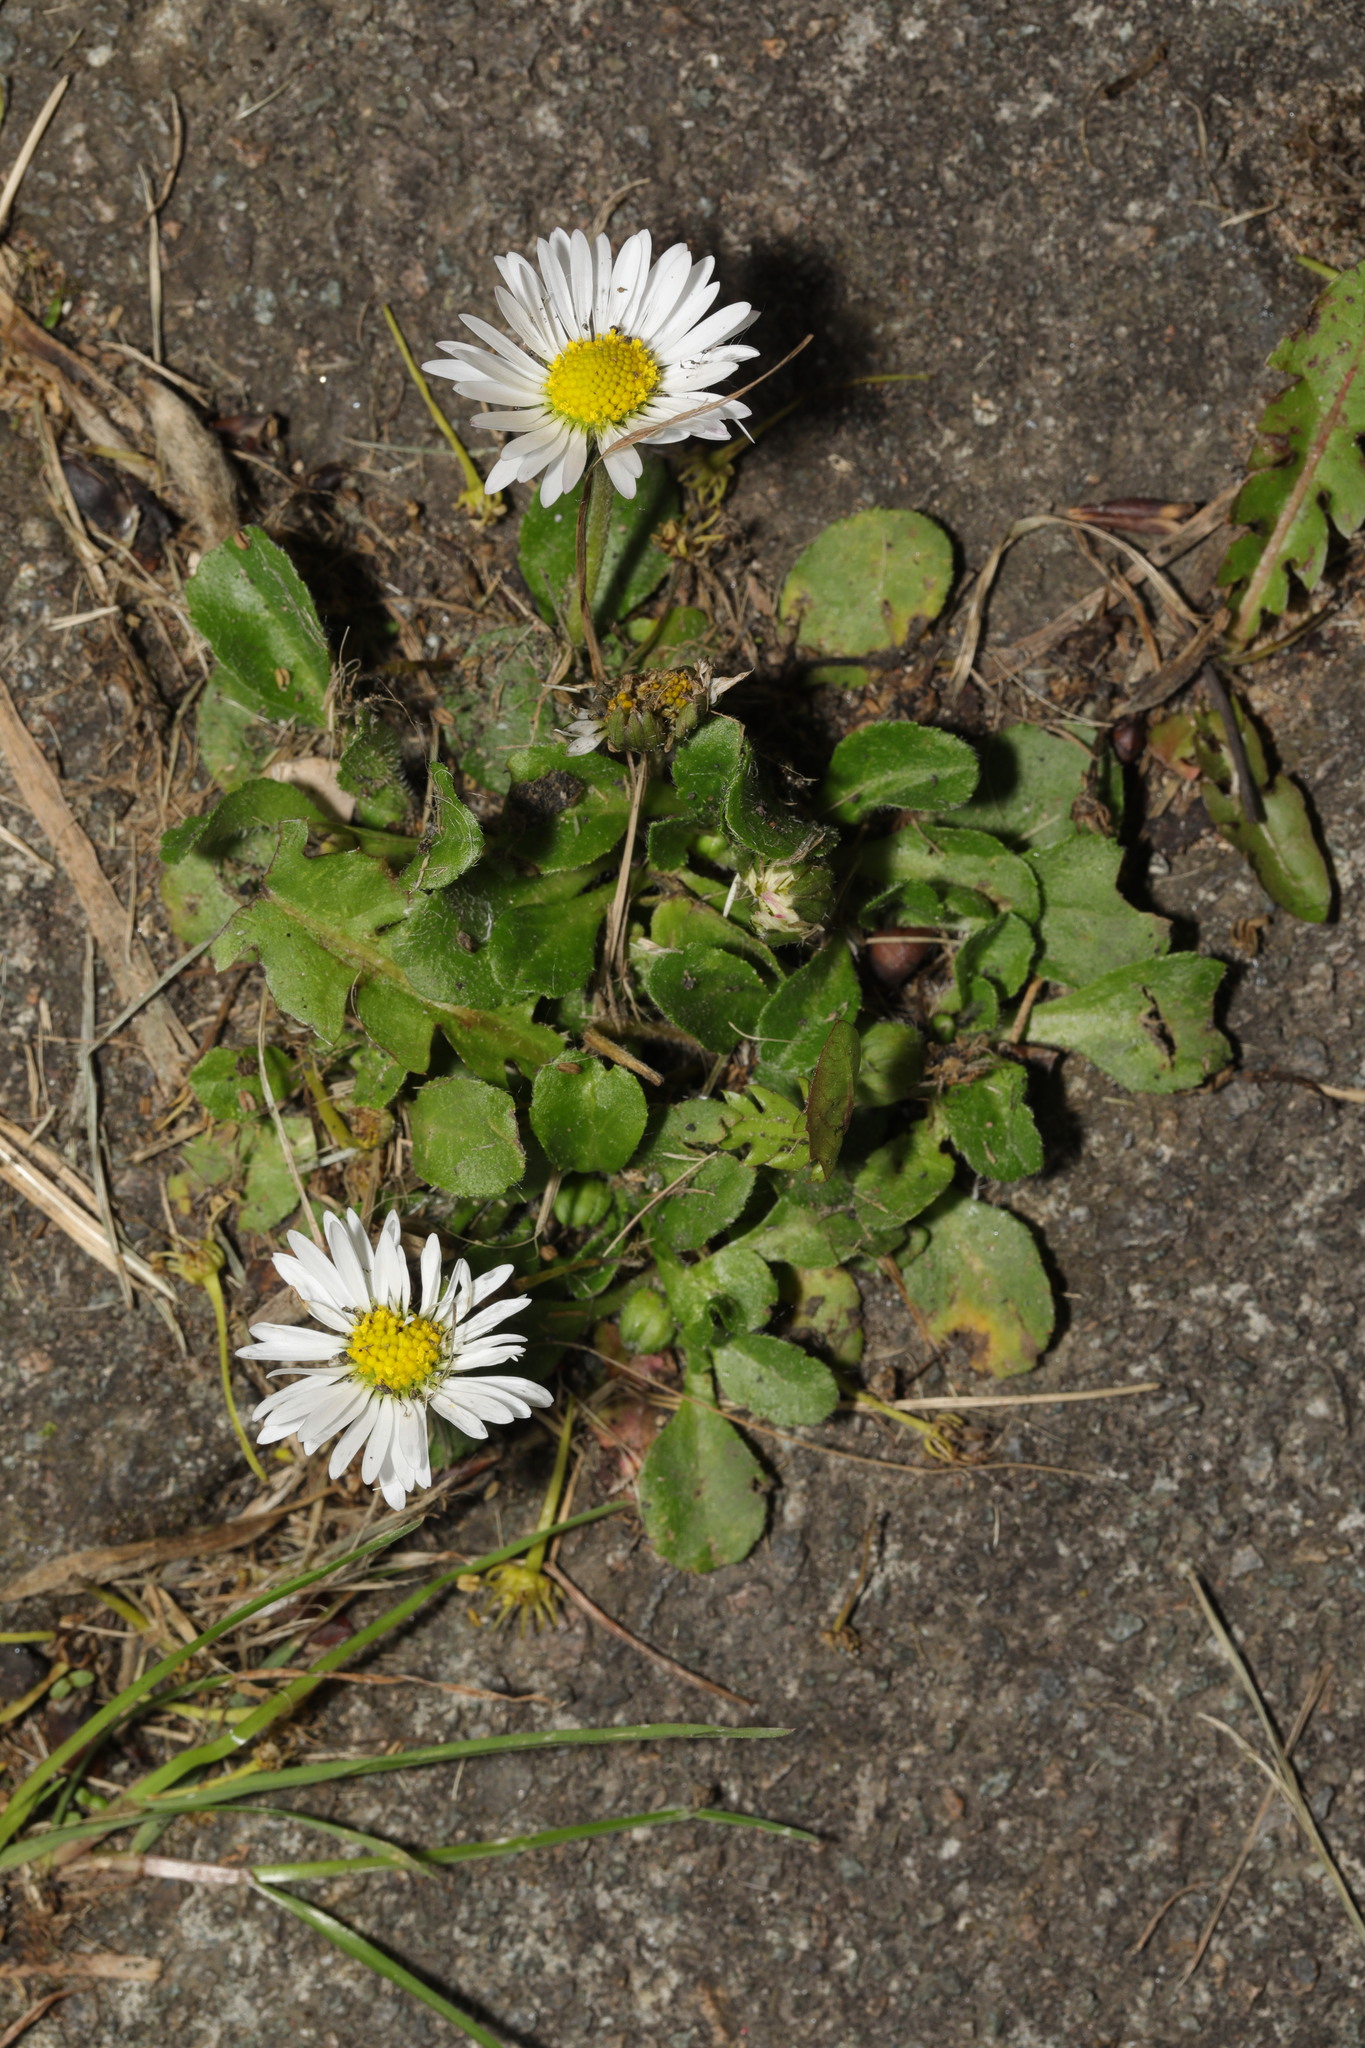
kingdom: Plantae
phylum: Tracheophyta
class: Magnoliopsida
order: Asterales
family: Asteraceae
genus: Bellis
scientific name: Bellis perennis
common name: Lawndaisy
